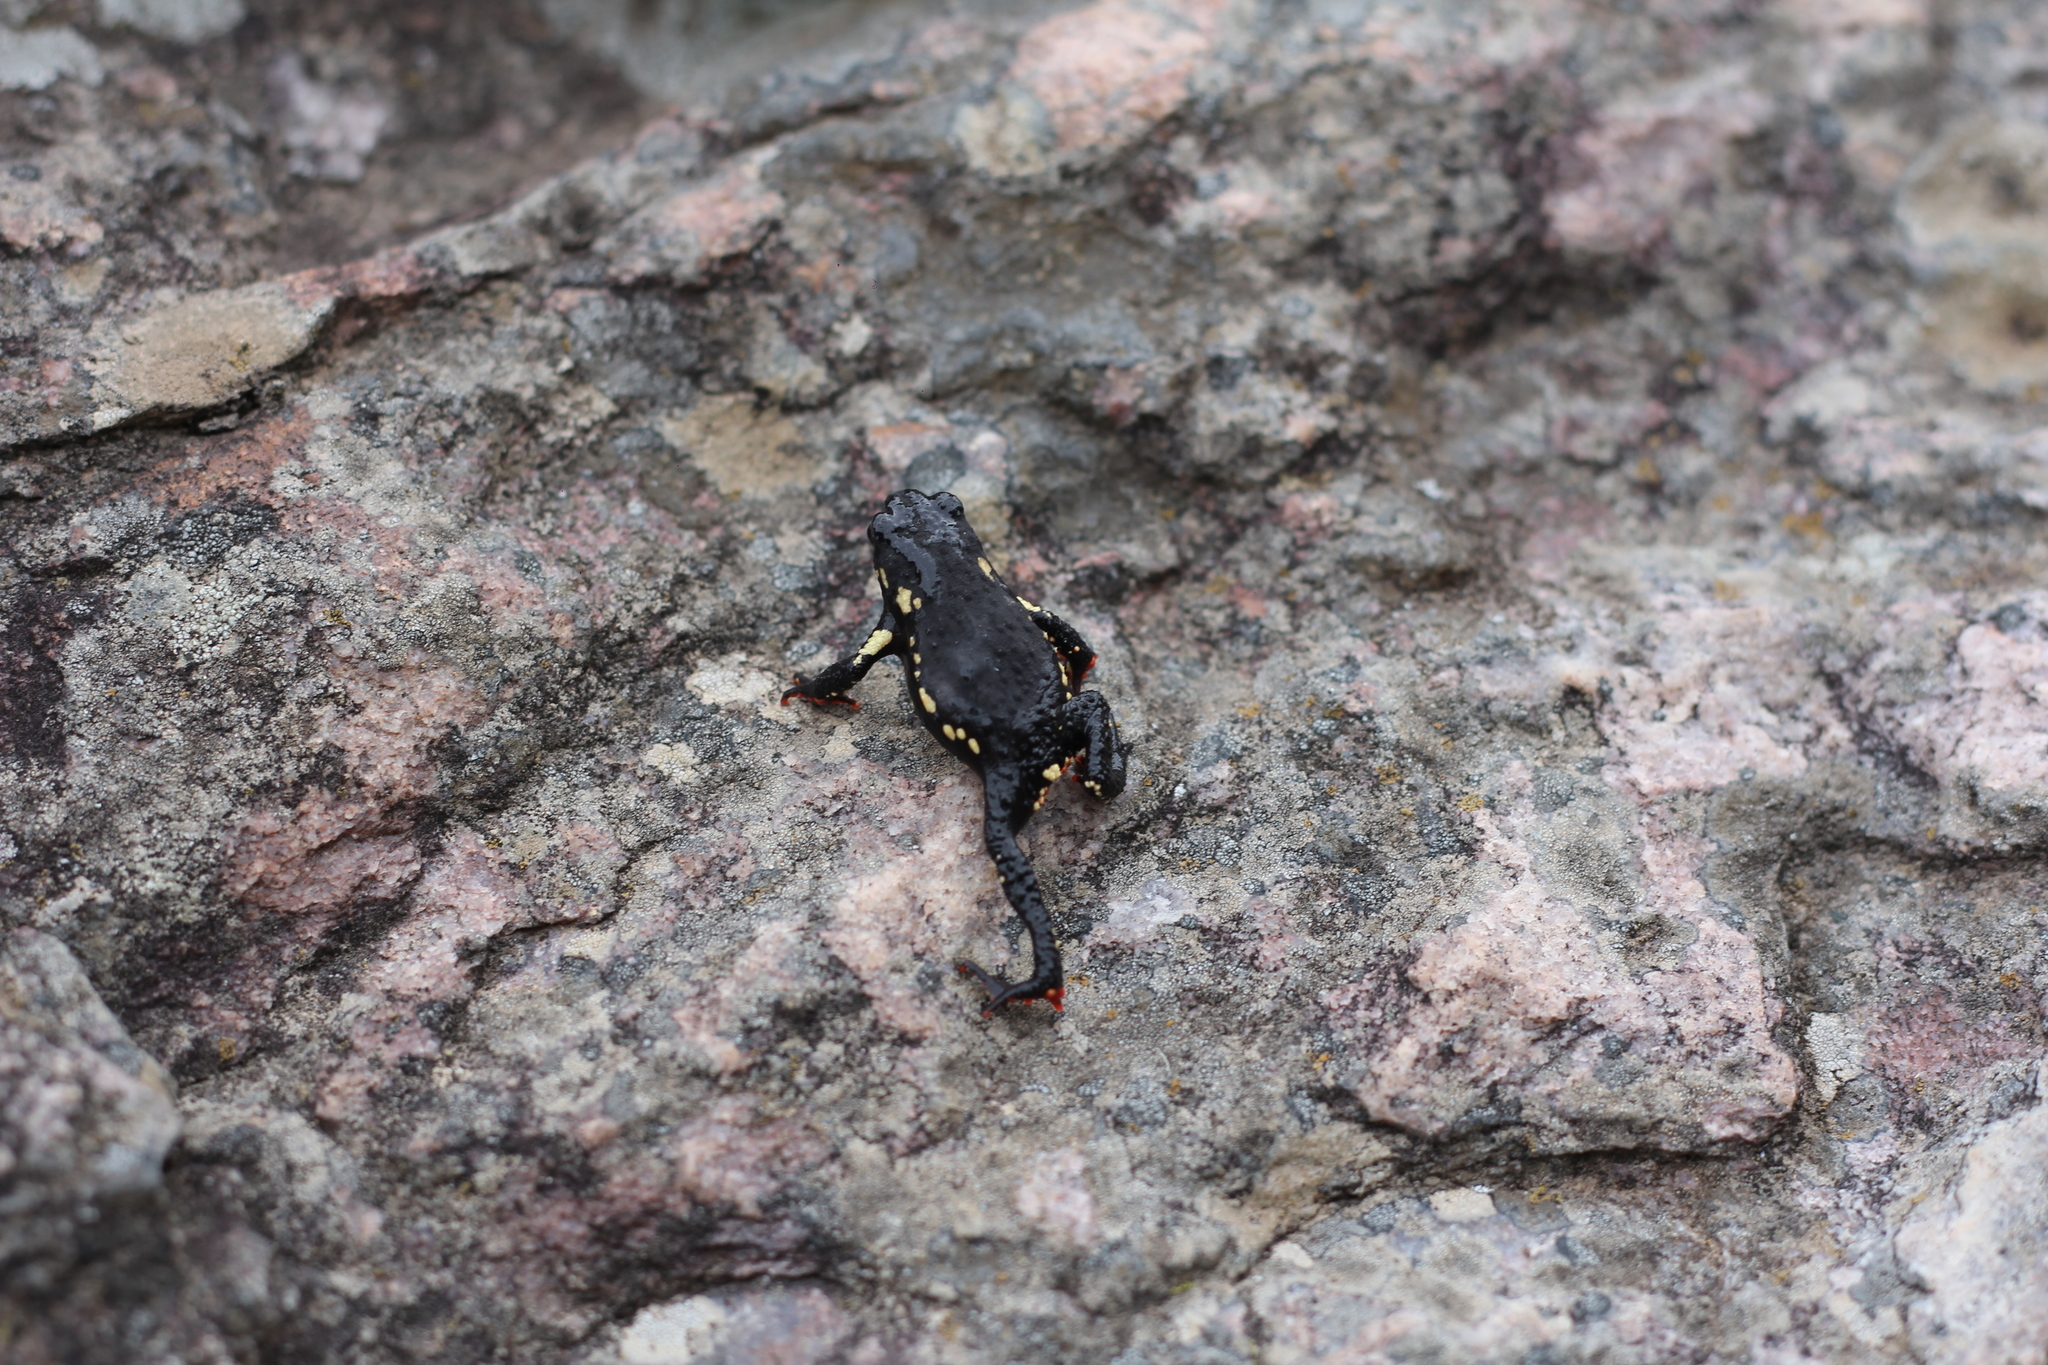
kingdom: Animalia
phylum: Chordata
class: Amphibia
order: Anura
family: Bufonidae
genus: Melanophryniscus
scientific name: Melanophryniscus
